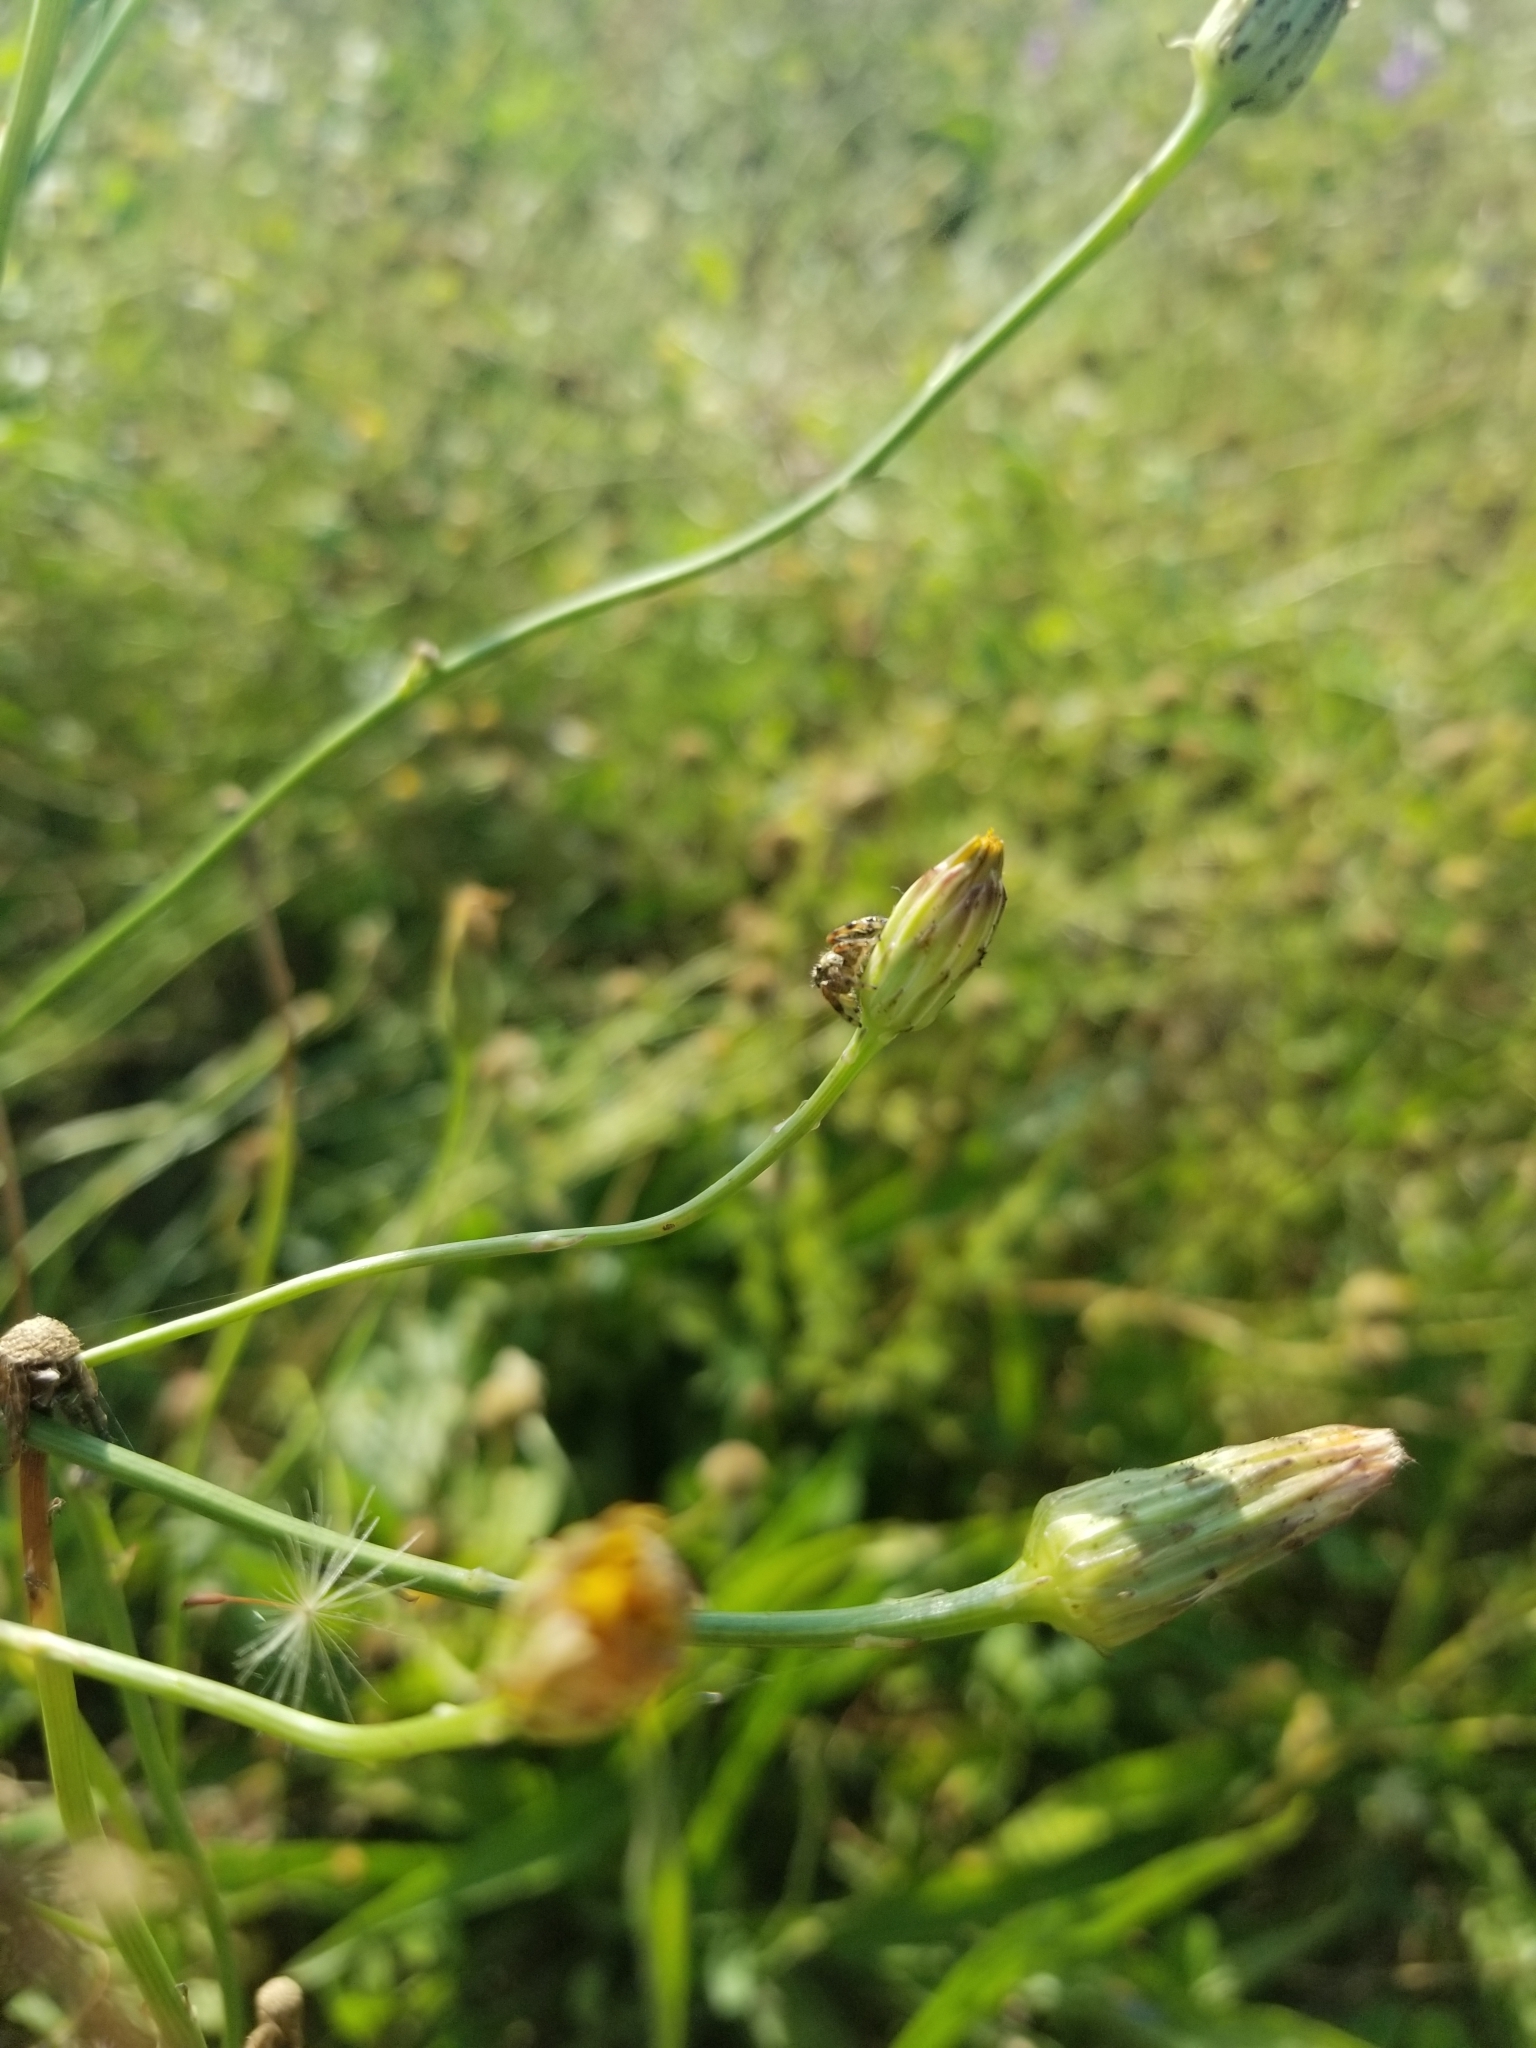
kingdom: Animalia
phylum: Arthropoda
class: Arachnida
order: Araneae
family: Salticidae
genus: Phidippus
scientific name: Phidippus clarus
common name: Brilliant jumping spider
